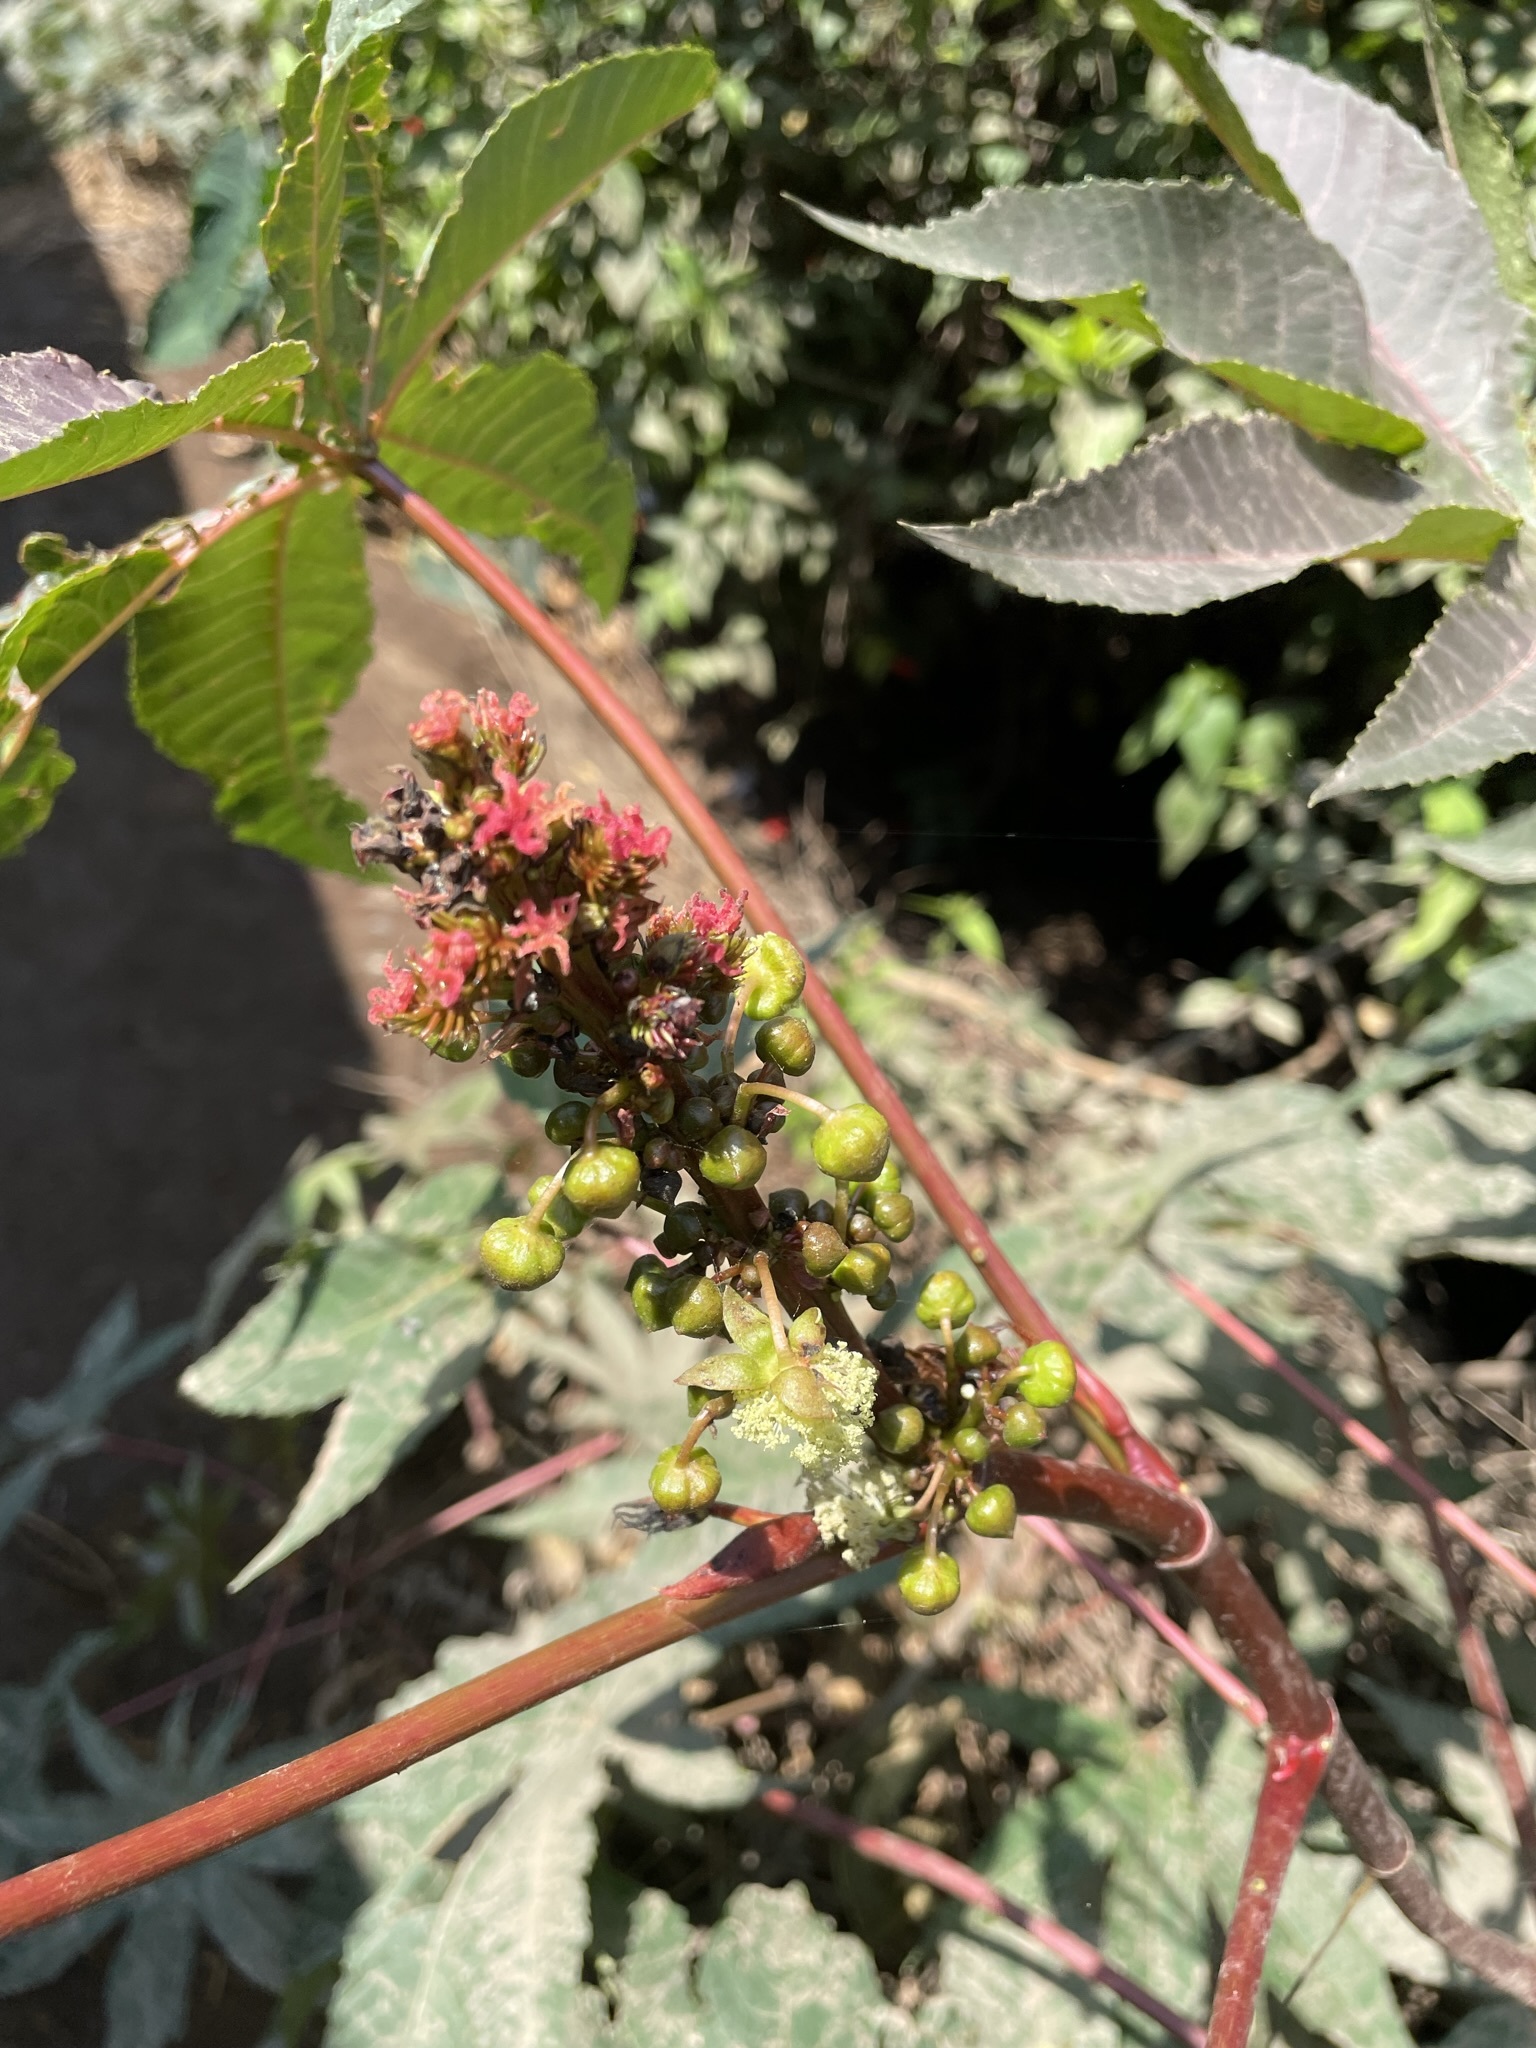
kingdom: Plantae
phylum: Tracheophyta
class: Magnoliopsida
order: Malpighiales
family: Euphorbiaceae
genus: Ricinus
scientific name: Ricinus communis
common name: Castor-oil-plant
